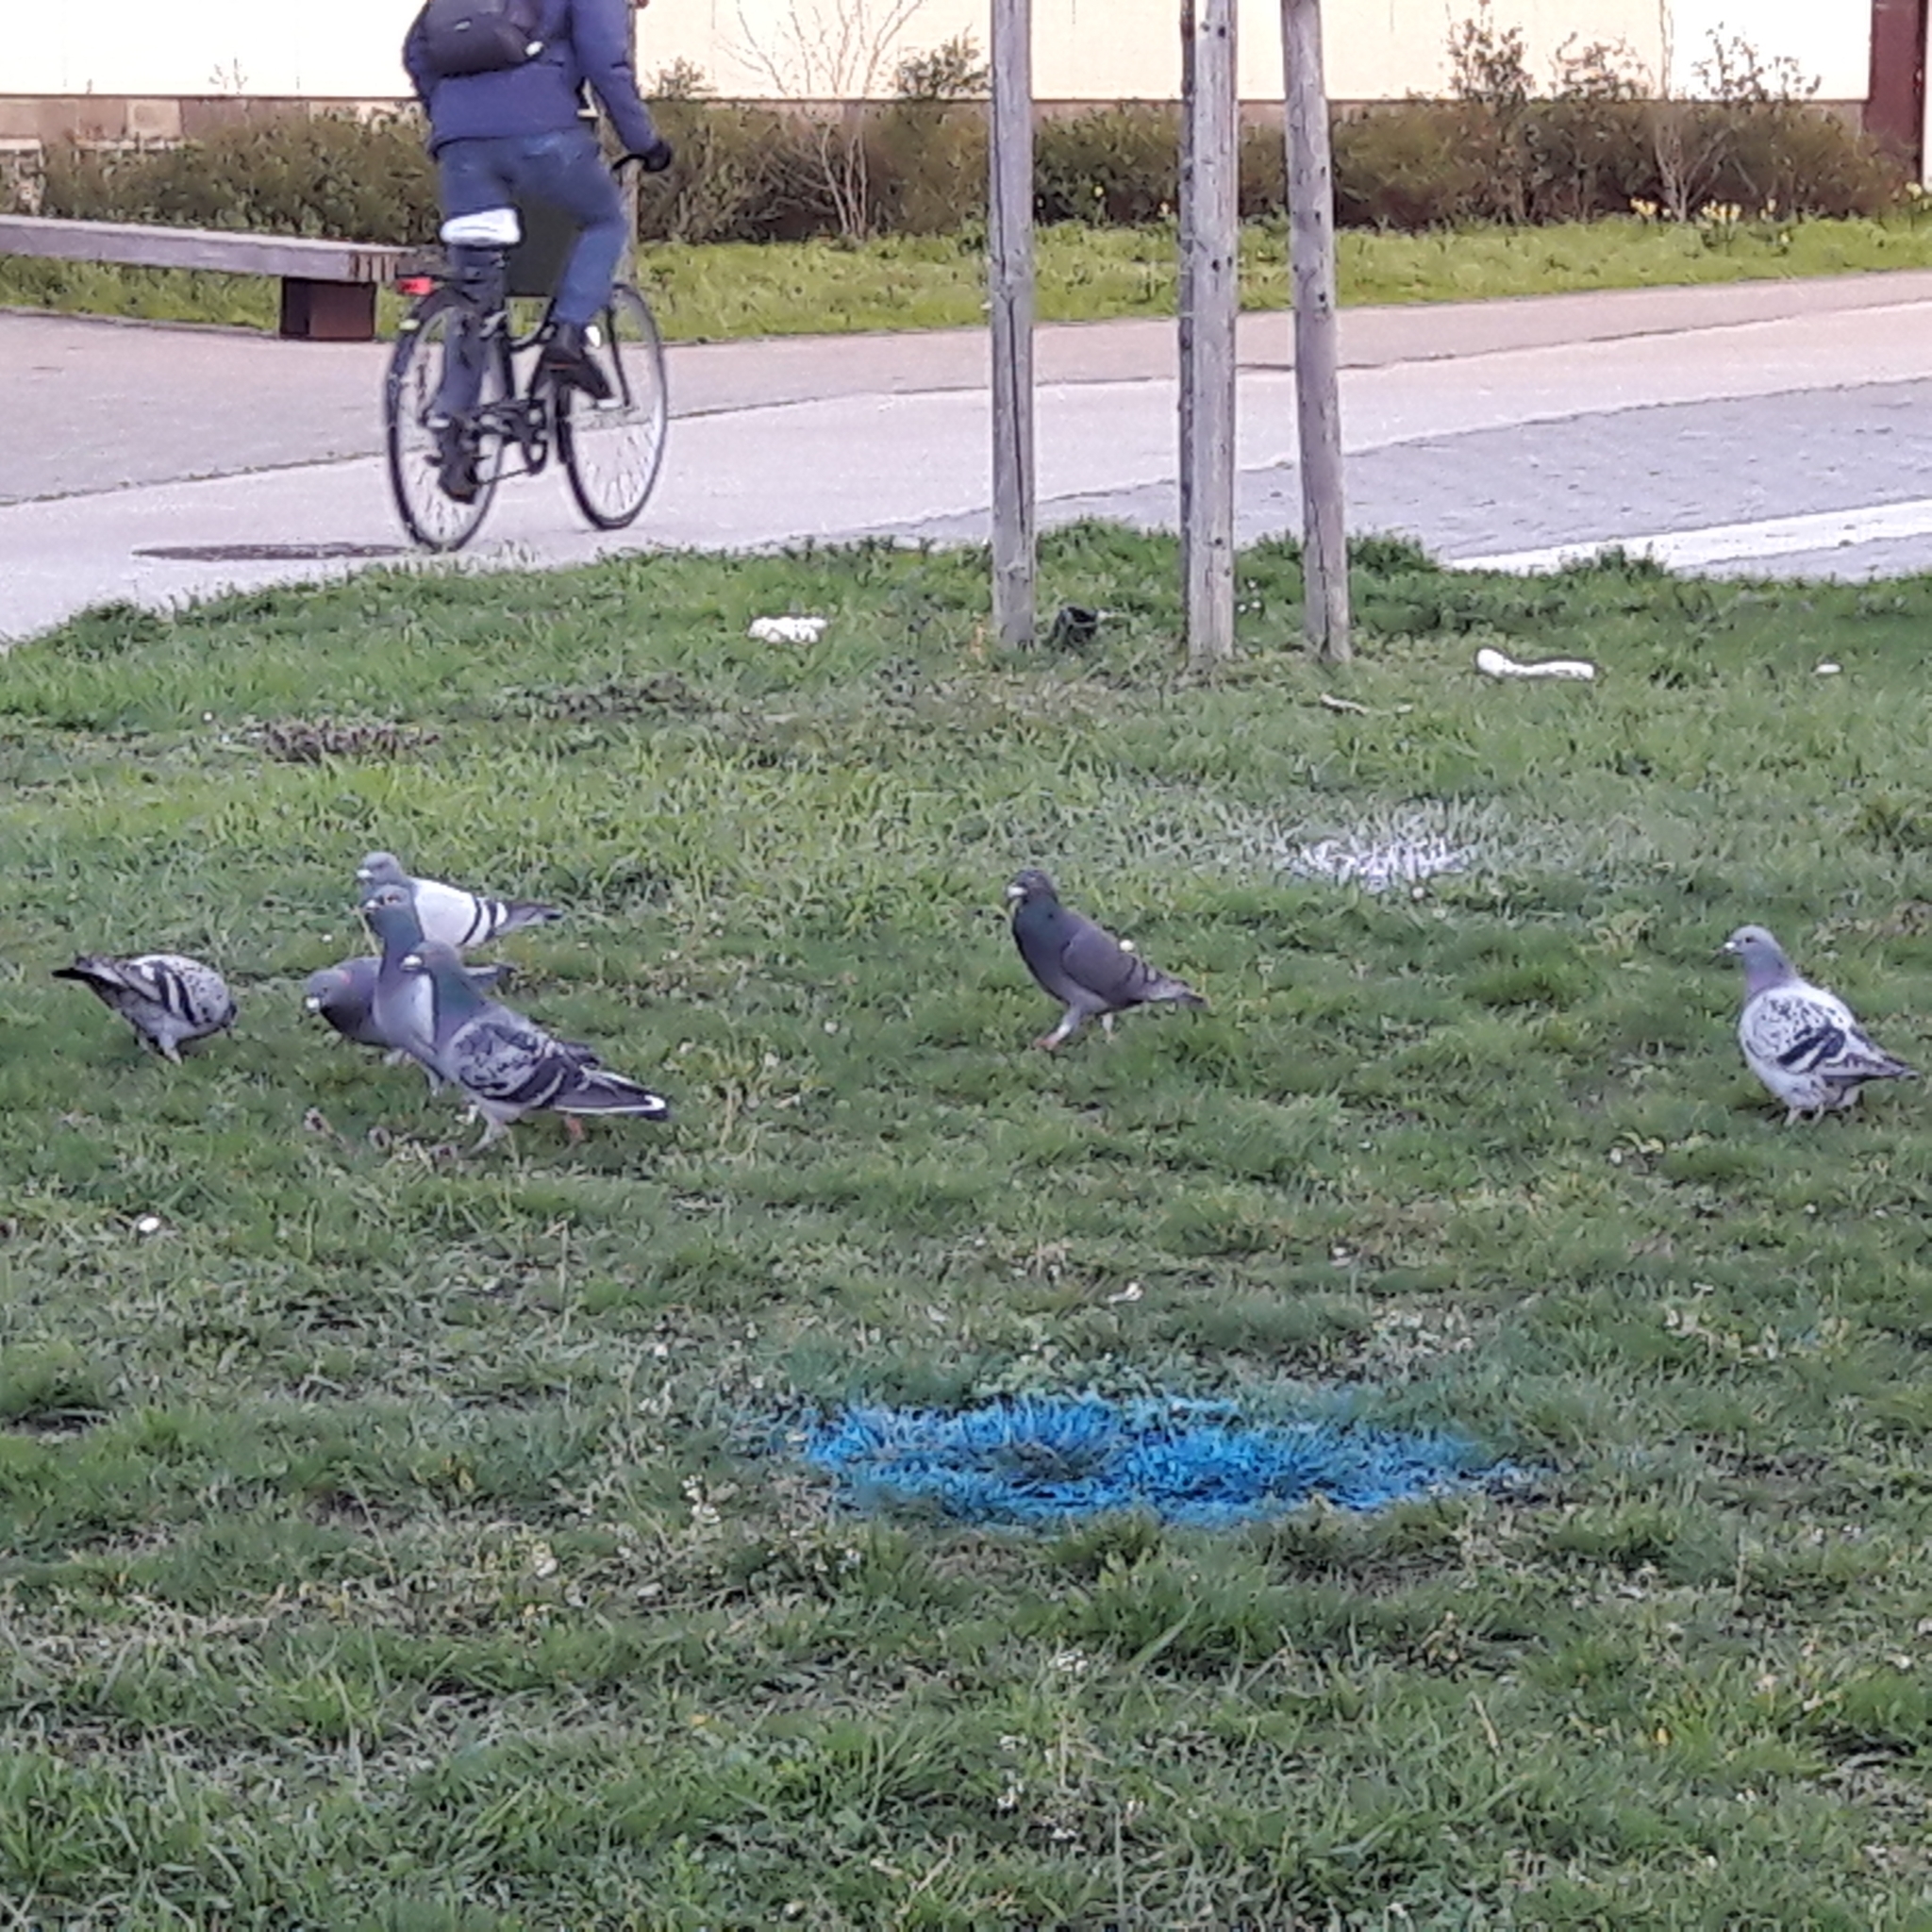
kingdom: Animalia
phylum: Chordata
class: Aves
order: Columbiformes
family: Columbidae
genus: Columba
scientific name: Columba livia
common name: Rock pigeon
